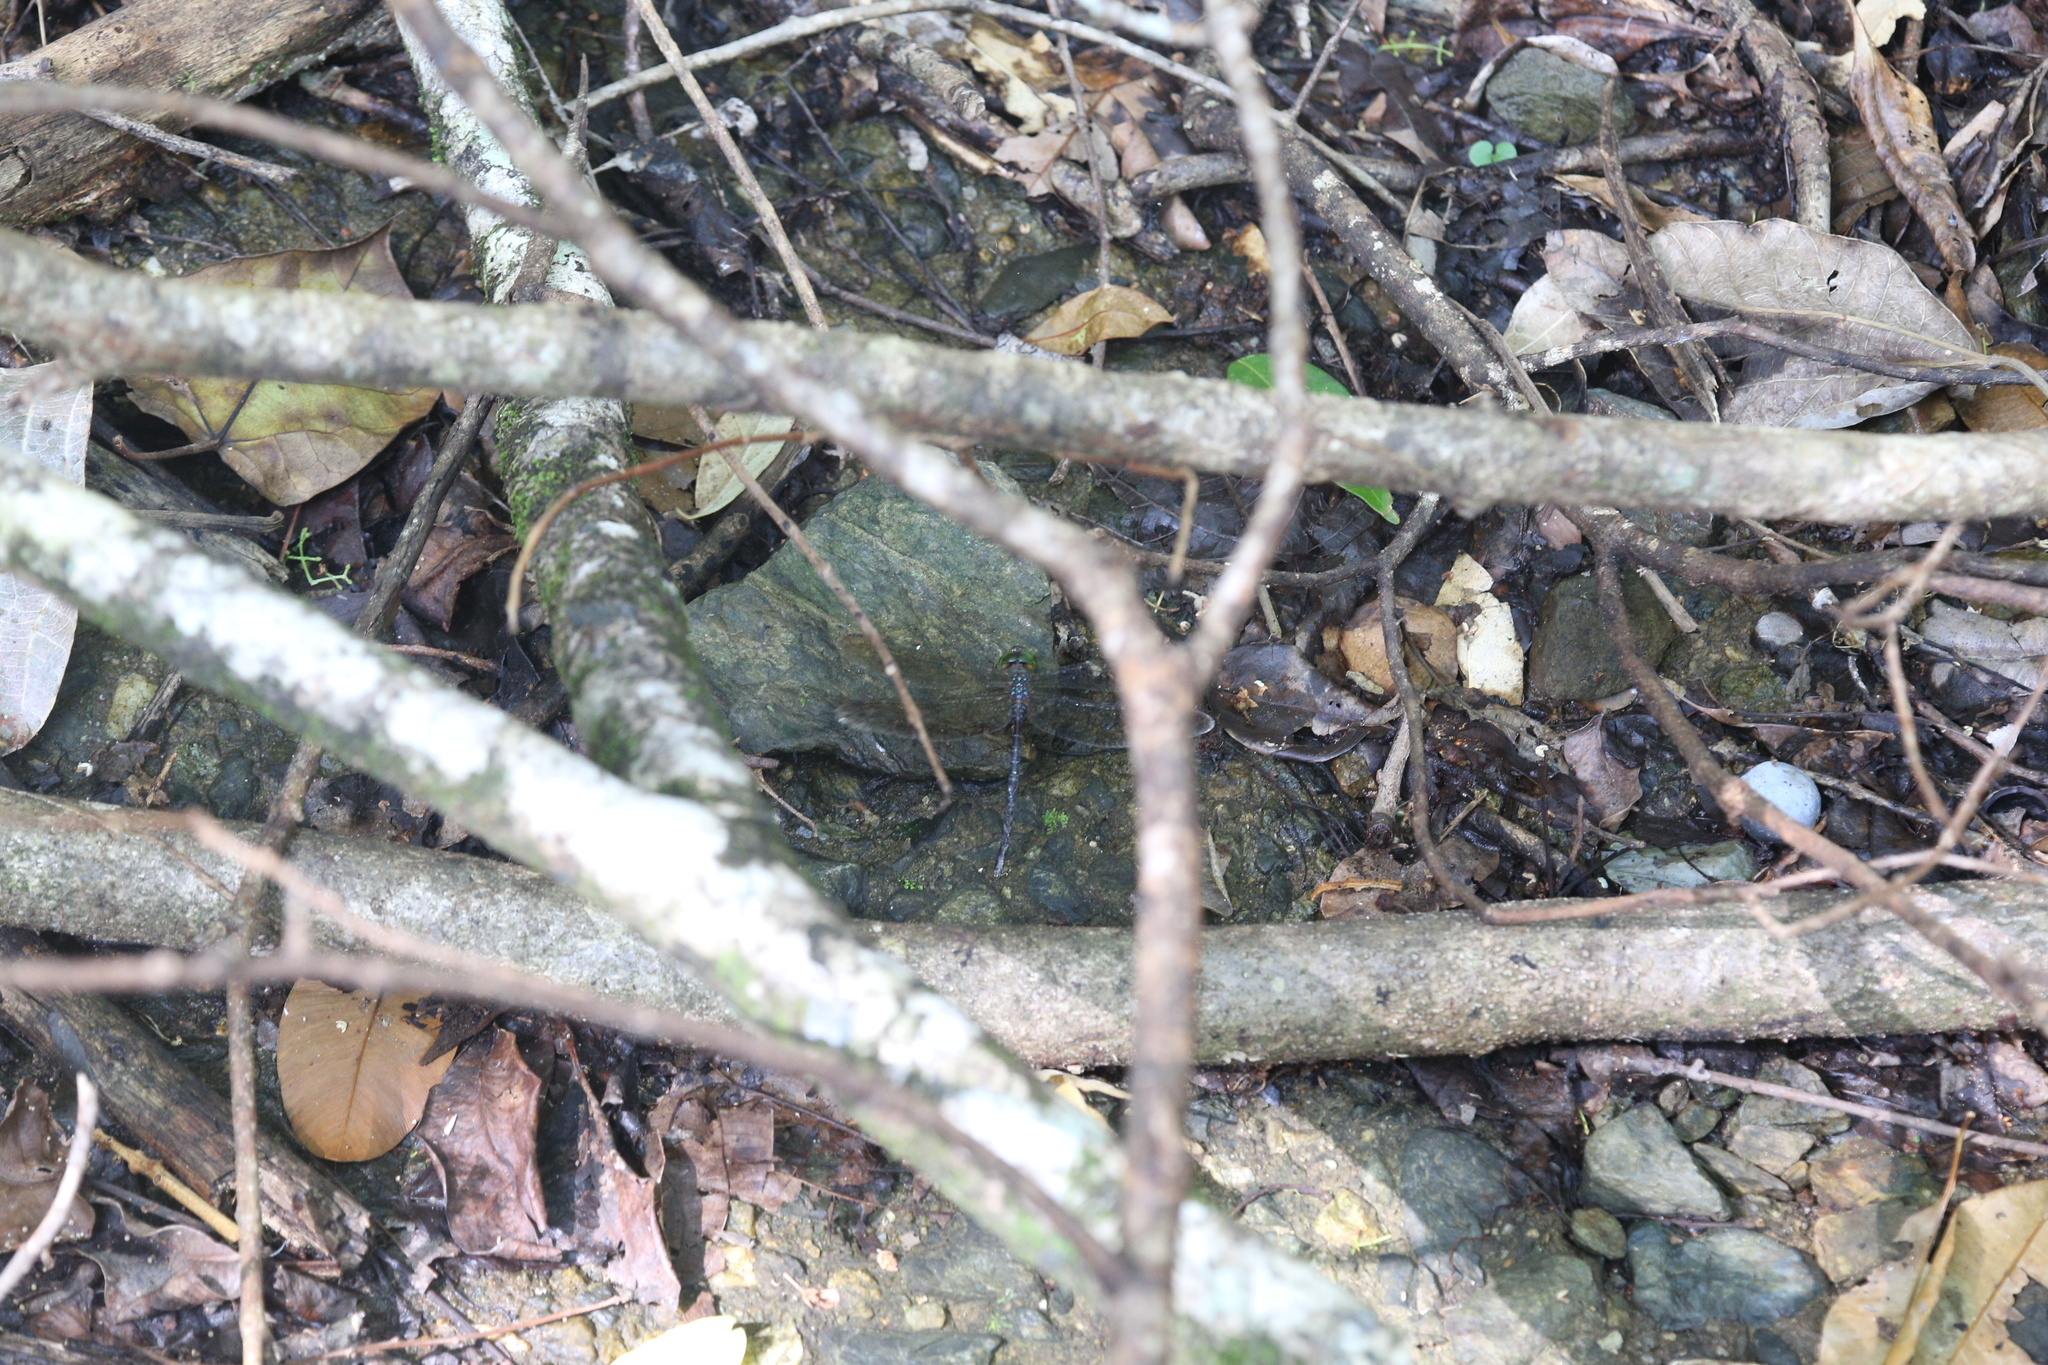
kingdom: Animalia
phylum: Arthropoda
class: Insecta
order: Odonata
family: Aeshnidae
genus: Gynacantha
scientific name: Gynacantha mocsaryi
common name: Paddle-tipped duskhawker
